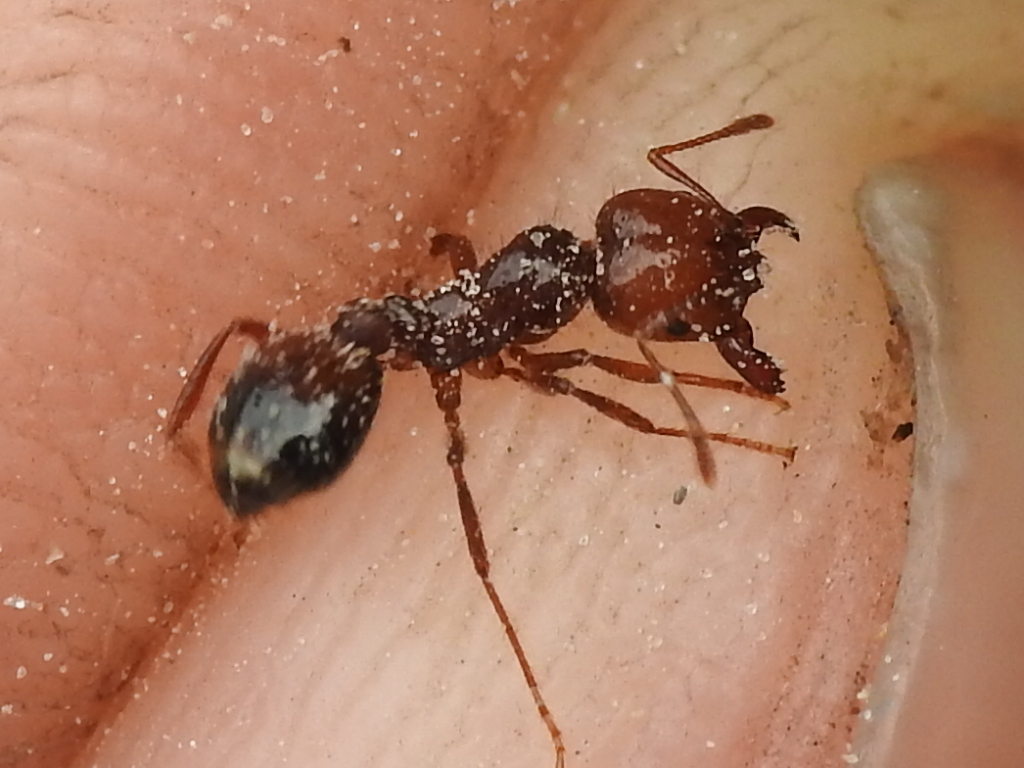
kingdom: Animalia
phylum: Arthropoda
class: Insecta
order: Hymenoptera
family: Formicidae
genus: Solenopsis
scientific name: Solenopsis invicta
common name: Red imported fire ant
